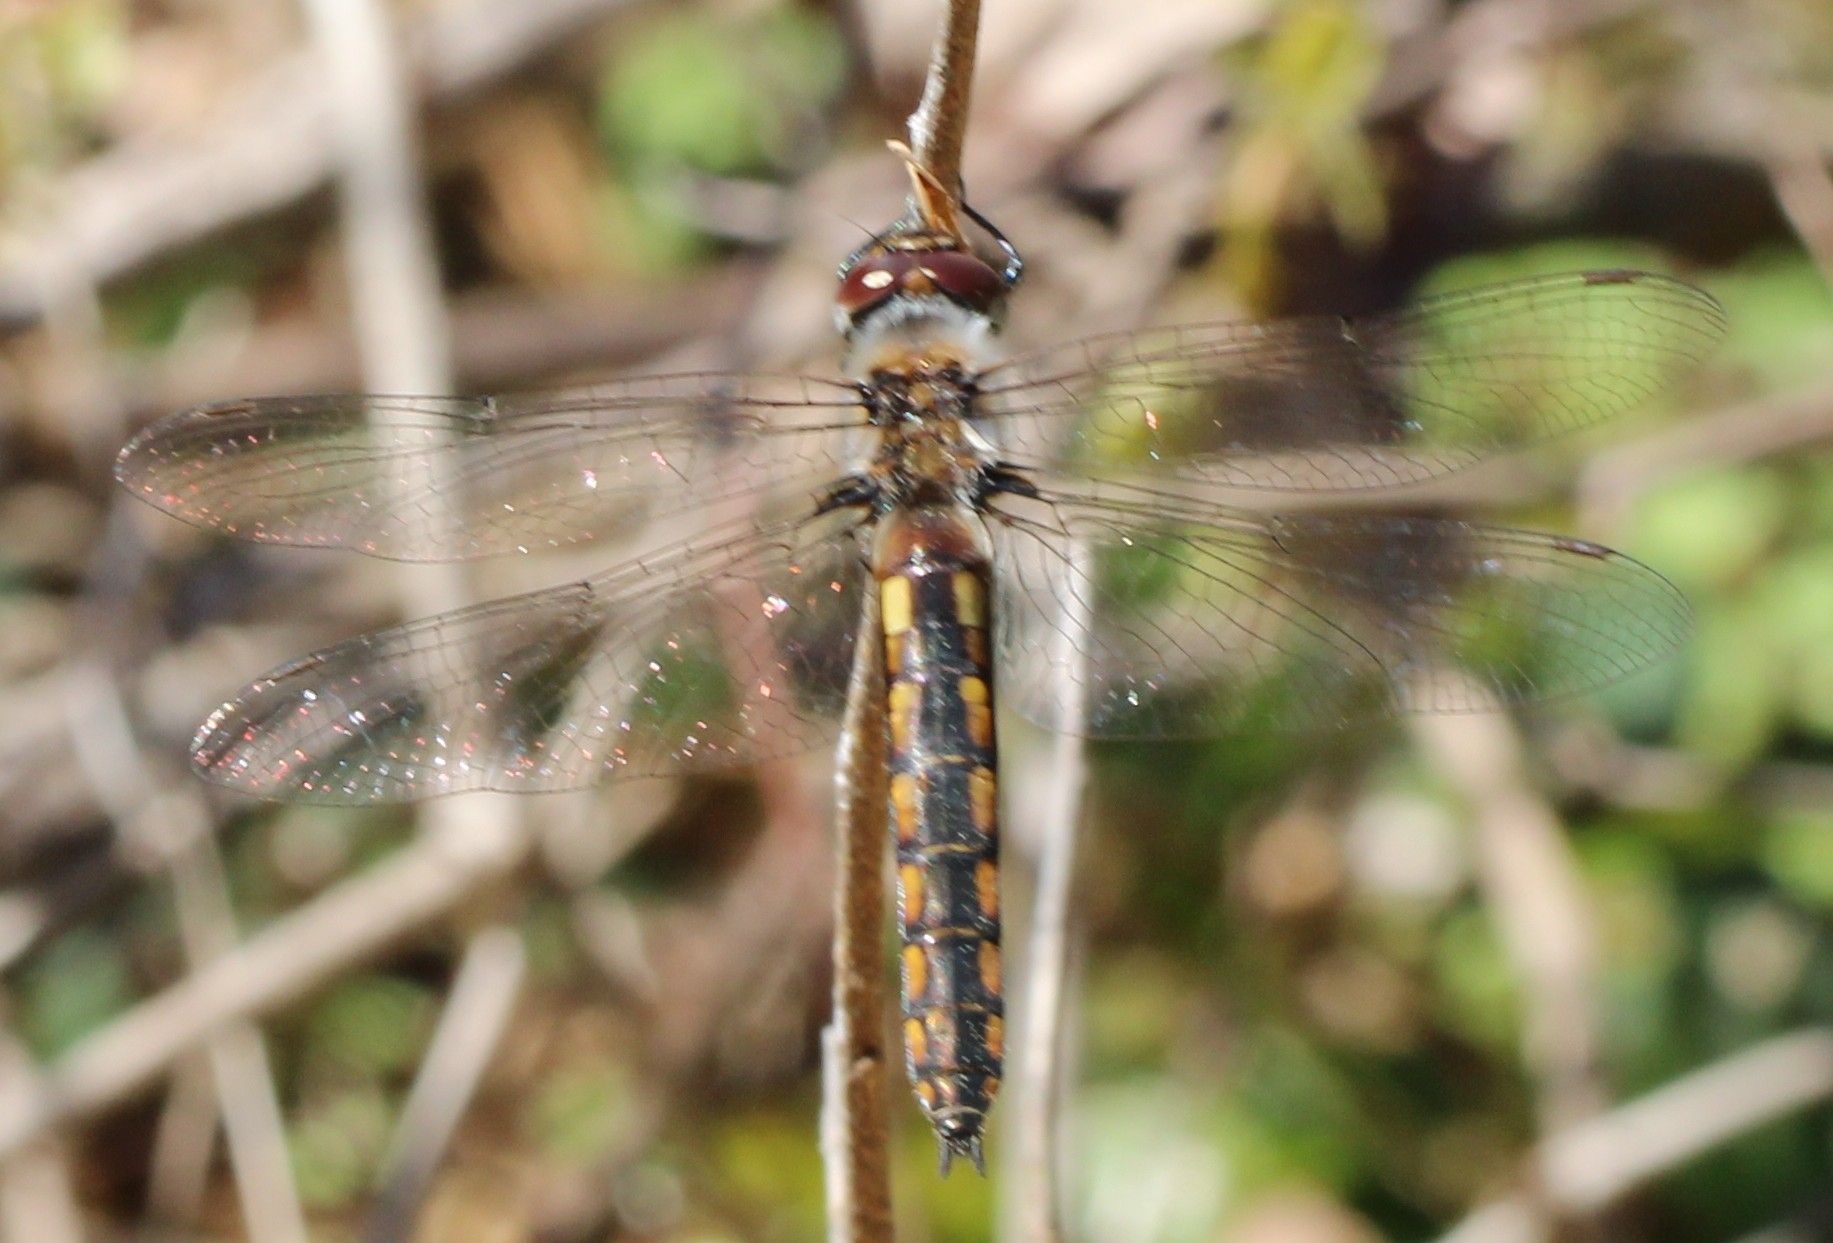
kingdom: Animalia
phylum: Arthropoda
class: Insecta
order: Odonata
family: Corduliidae
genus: Epitheca
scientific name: Epitheca cynosura
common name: Common baskettail
